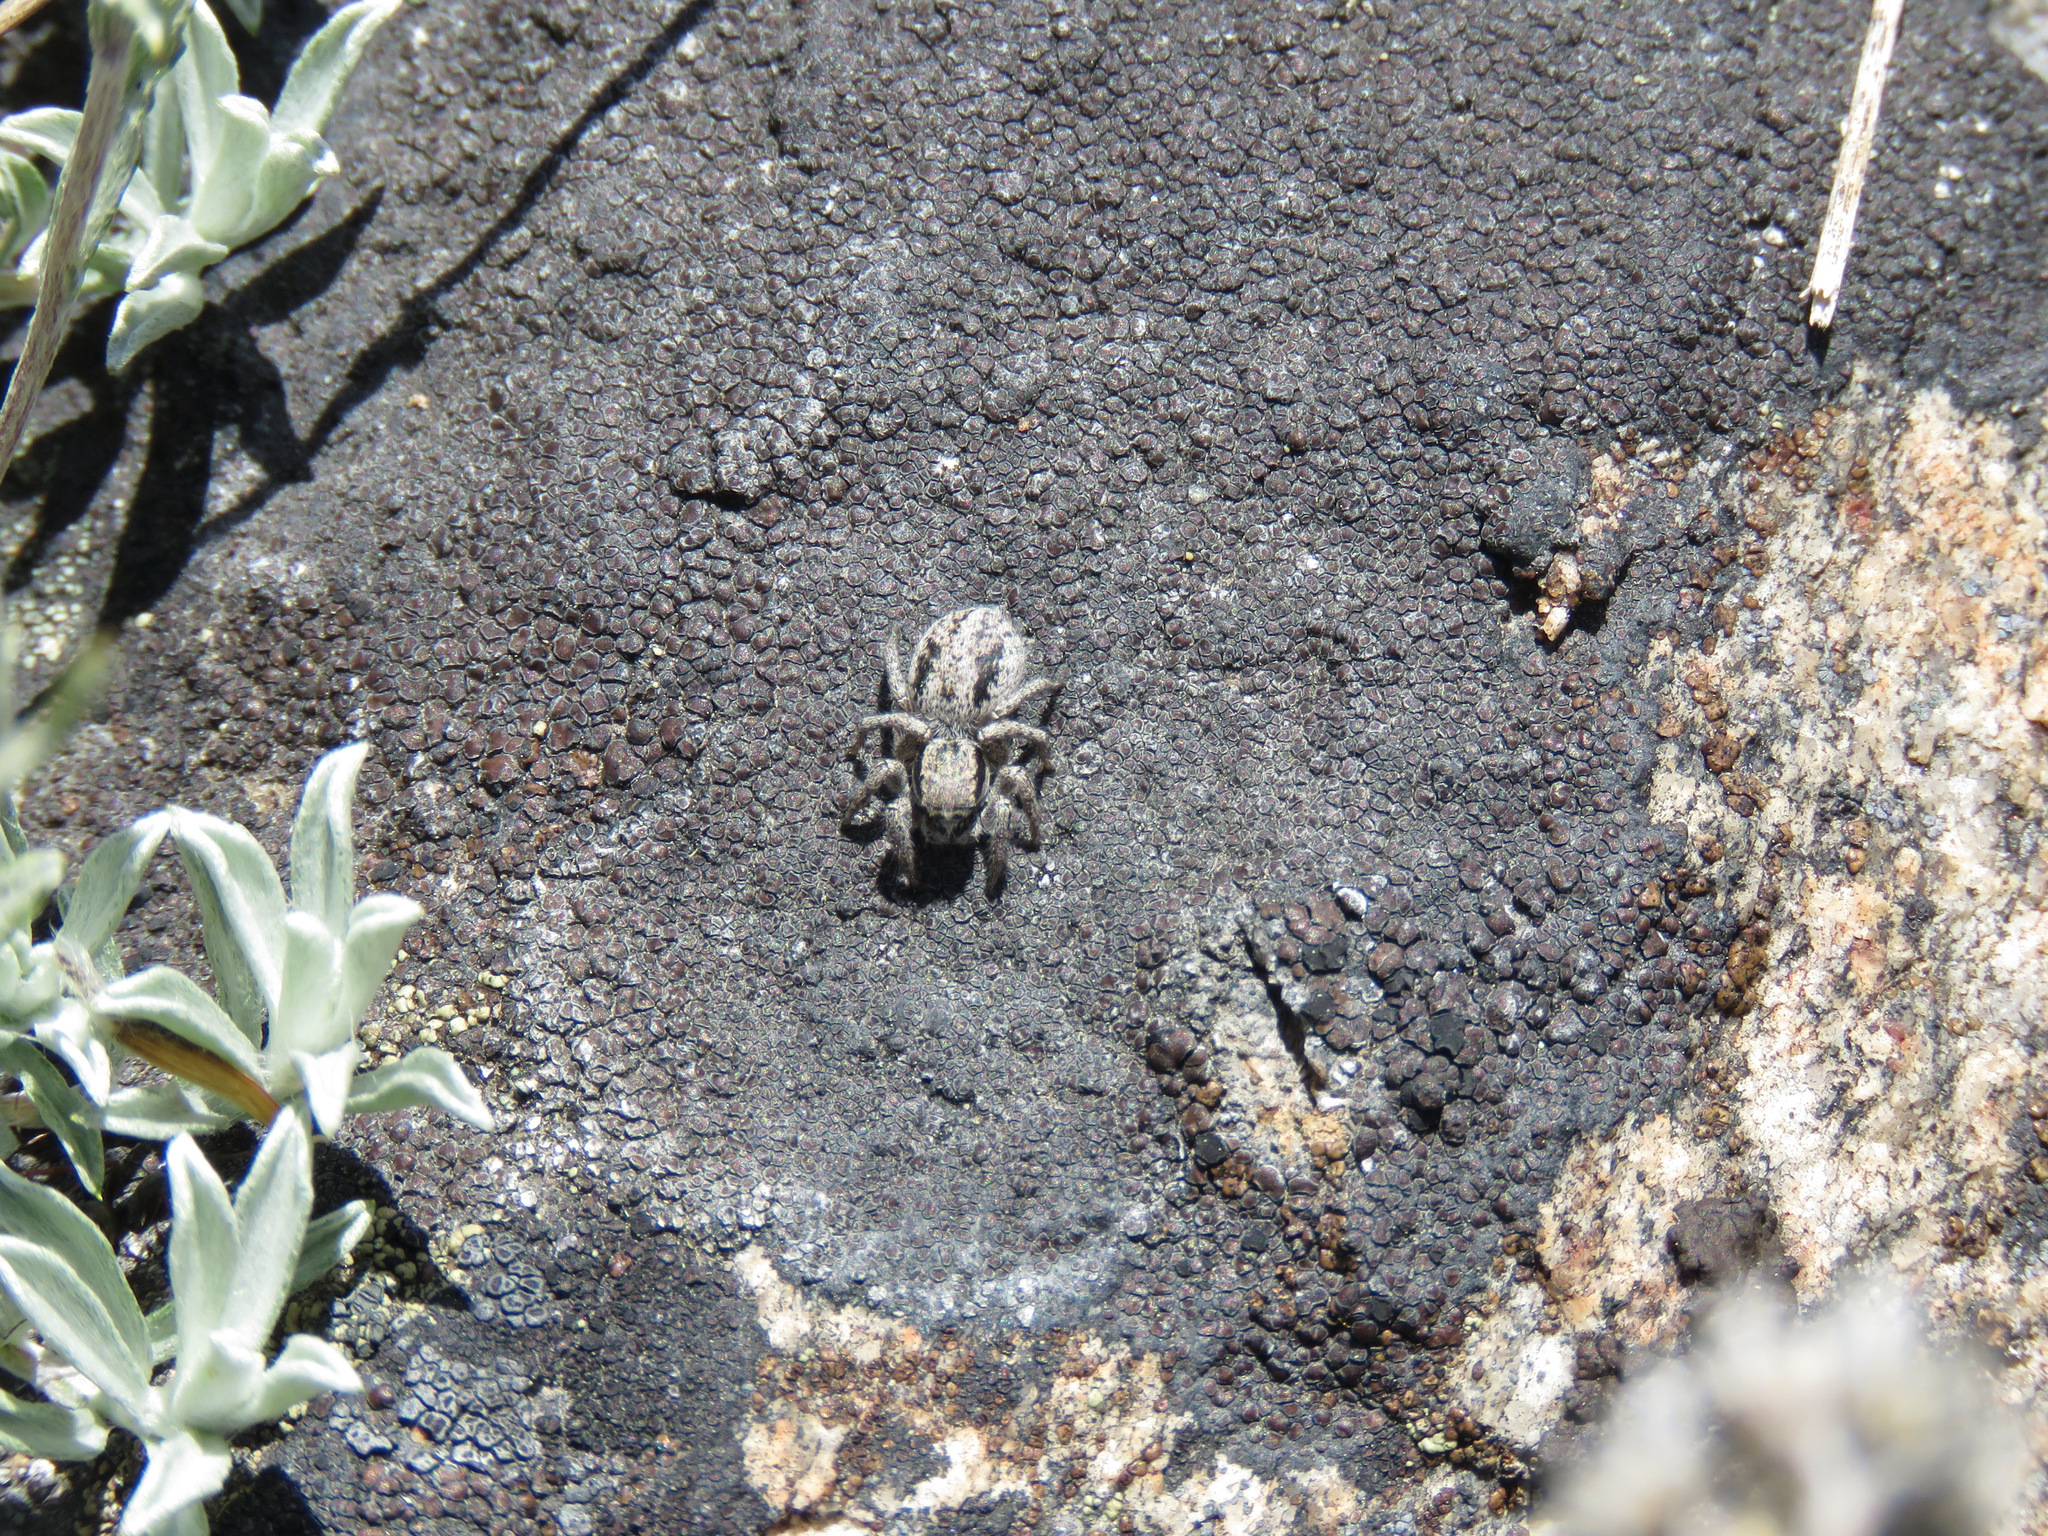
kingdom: Animalia
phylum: Arthropoda
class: Arachnida
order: Araneae
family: Salticidae
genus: Habronattus
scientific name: Habronattus sansoni
